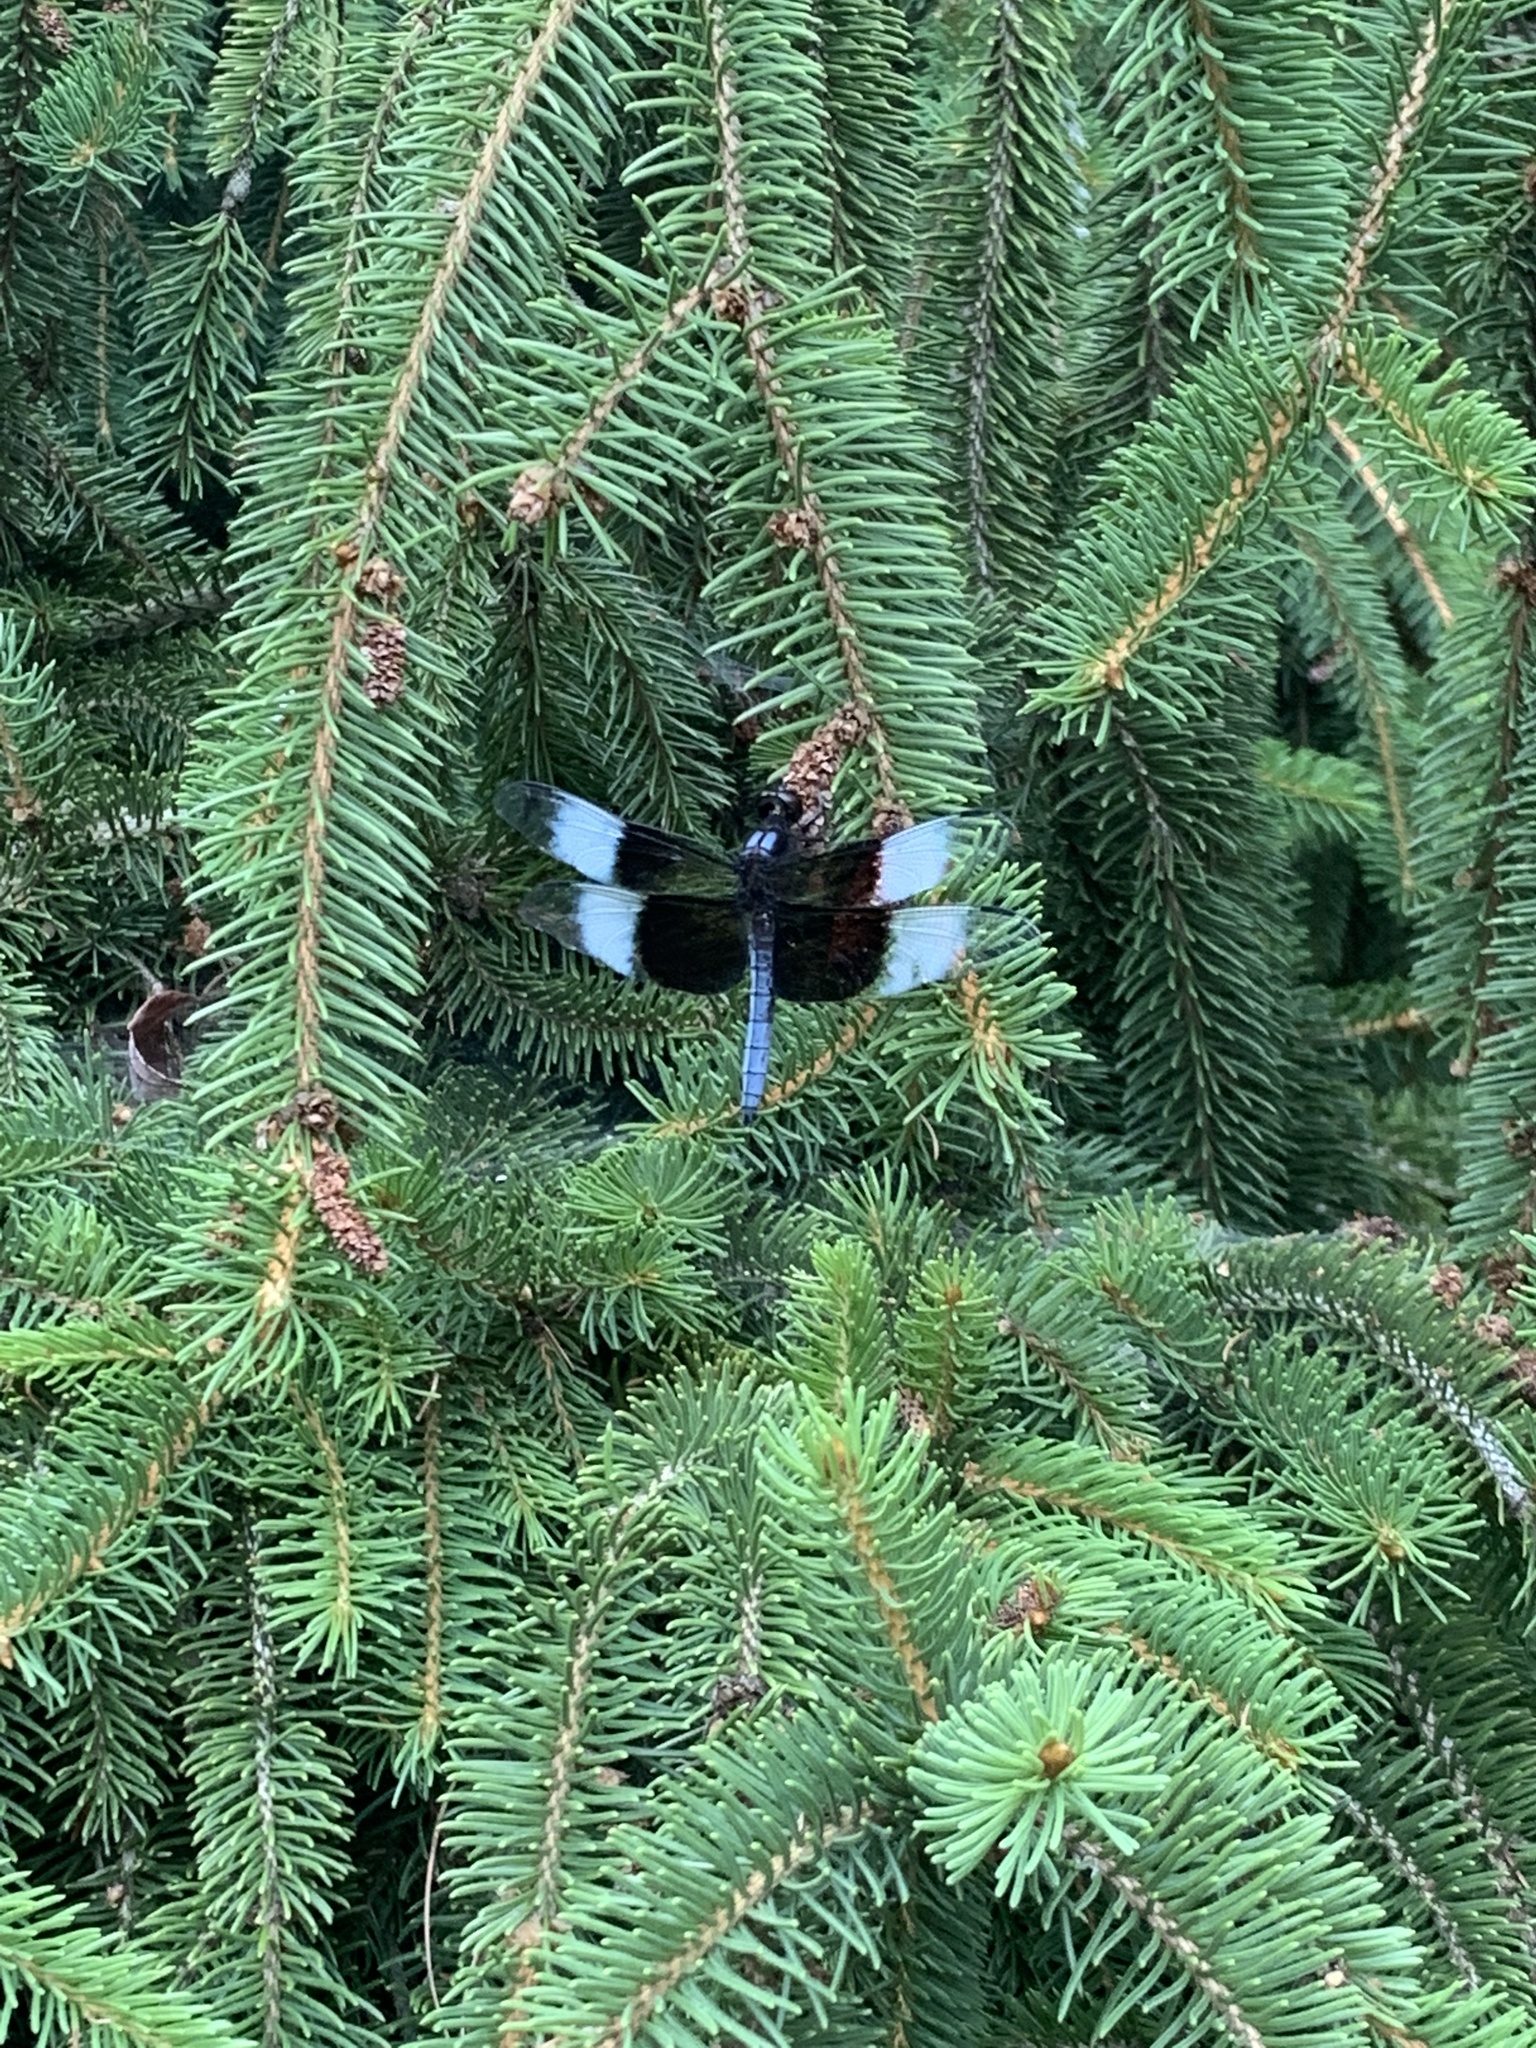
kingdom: Animalia
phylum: Arthropoda
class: Insecta
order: Odonata
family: Libellulidae
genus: Libellula
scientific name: Libellula luctuosa
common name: Widow skimmer
